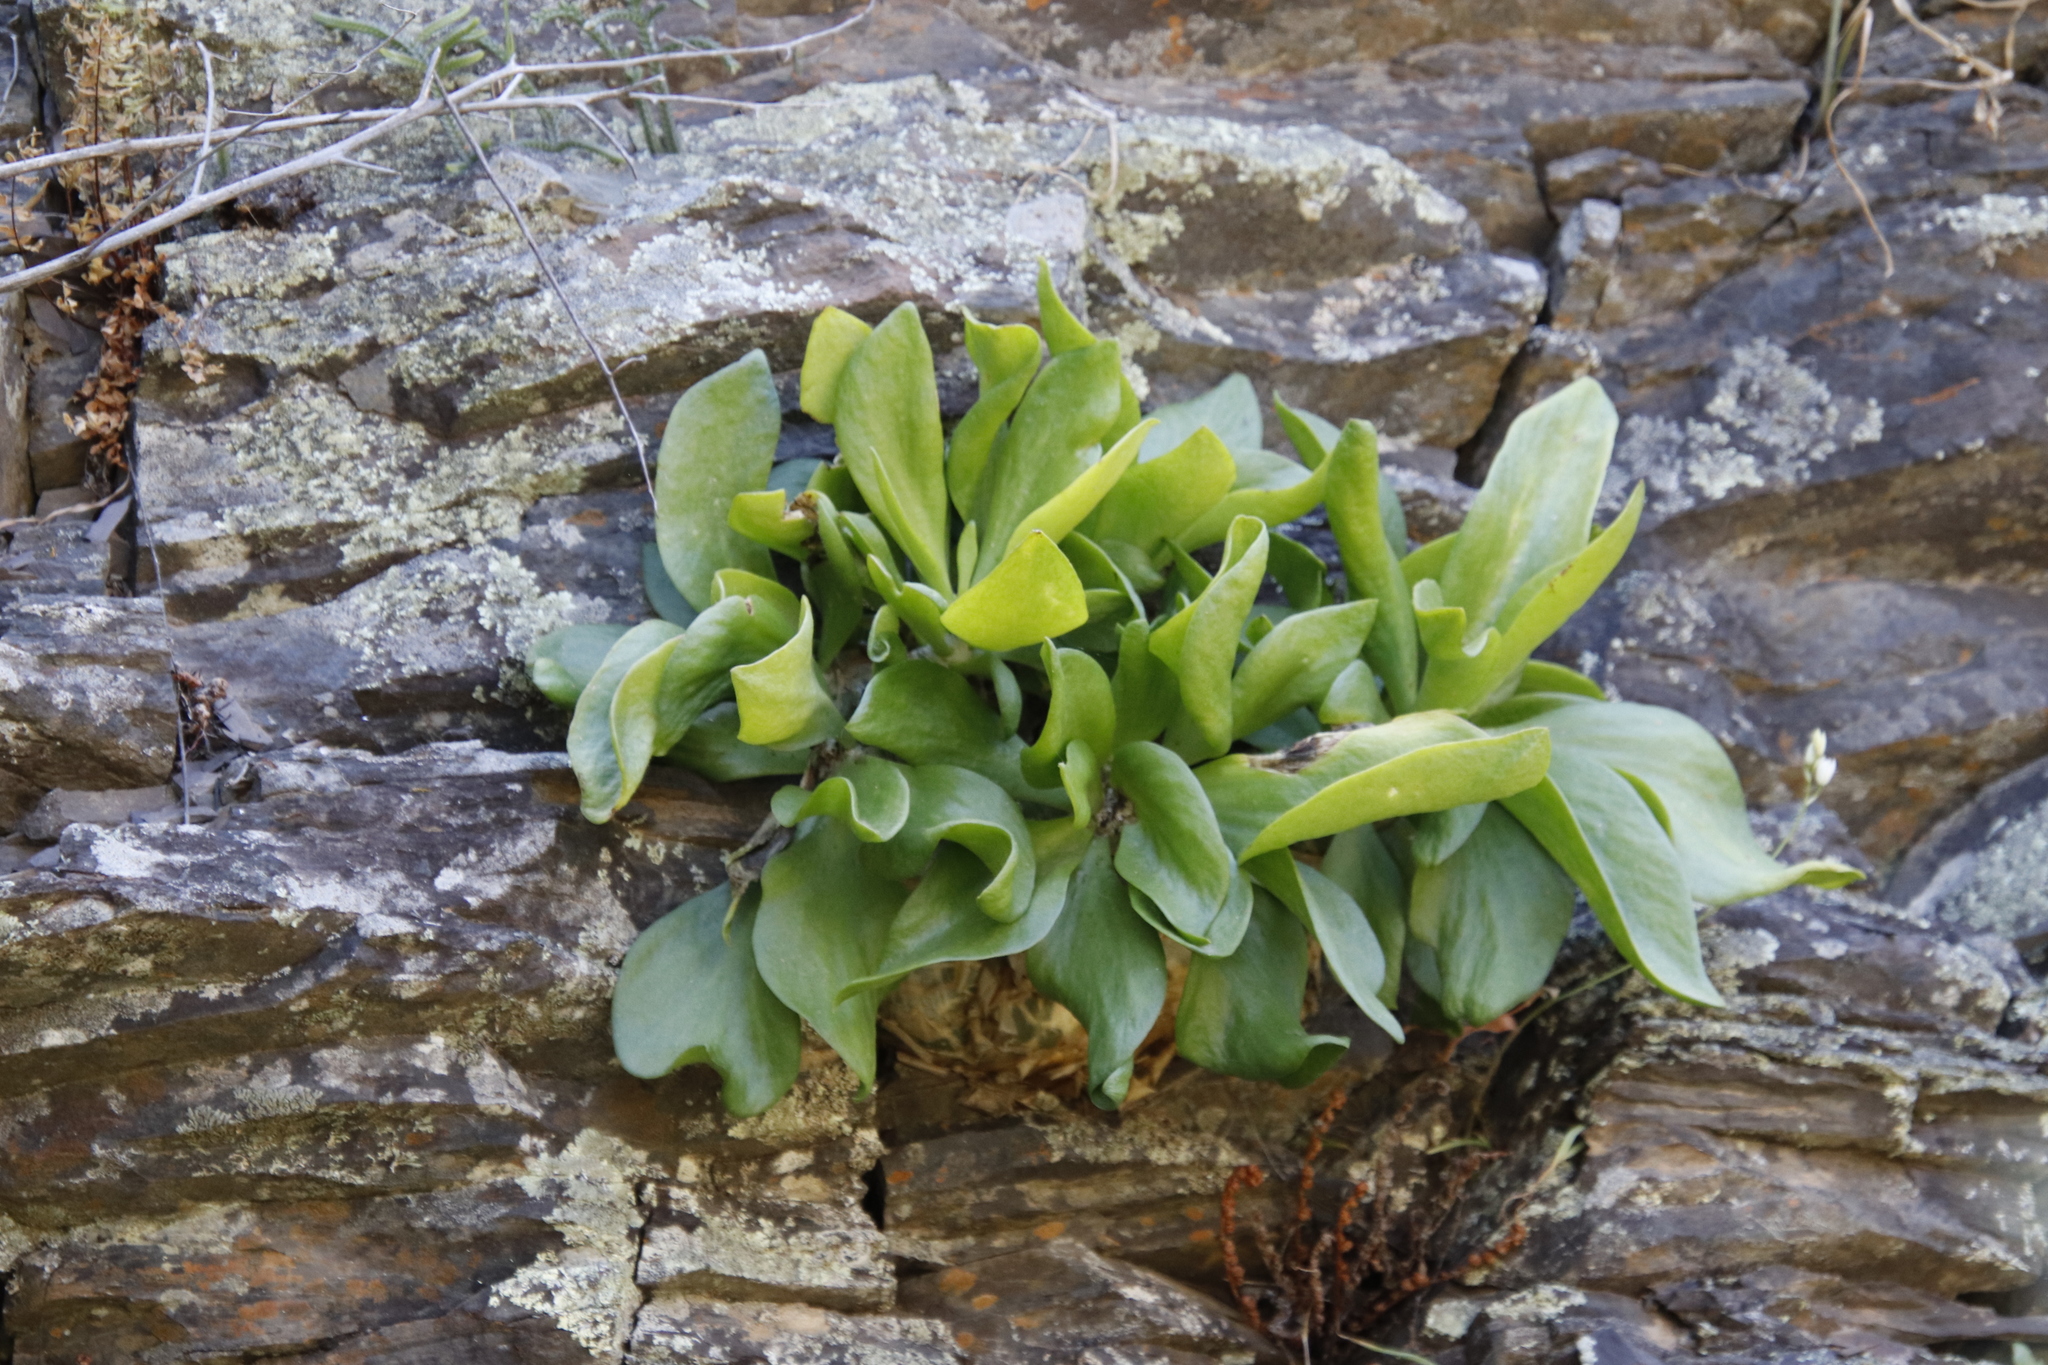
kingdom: Plantae
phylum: Tracheophyta
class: Magnoliopsida
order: Saxifragales
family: Crassulaceae
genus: Tylecodon
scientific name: Tylecodon paniculatus
